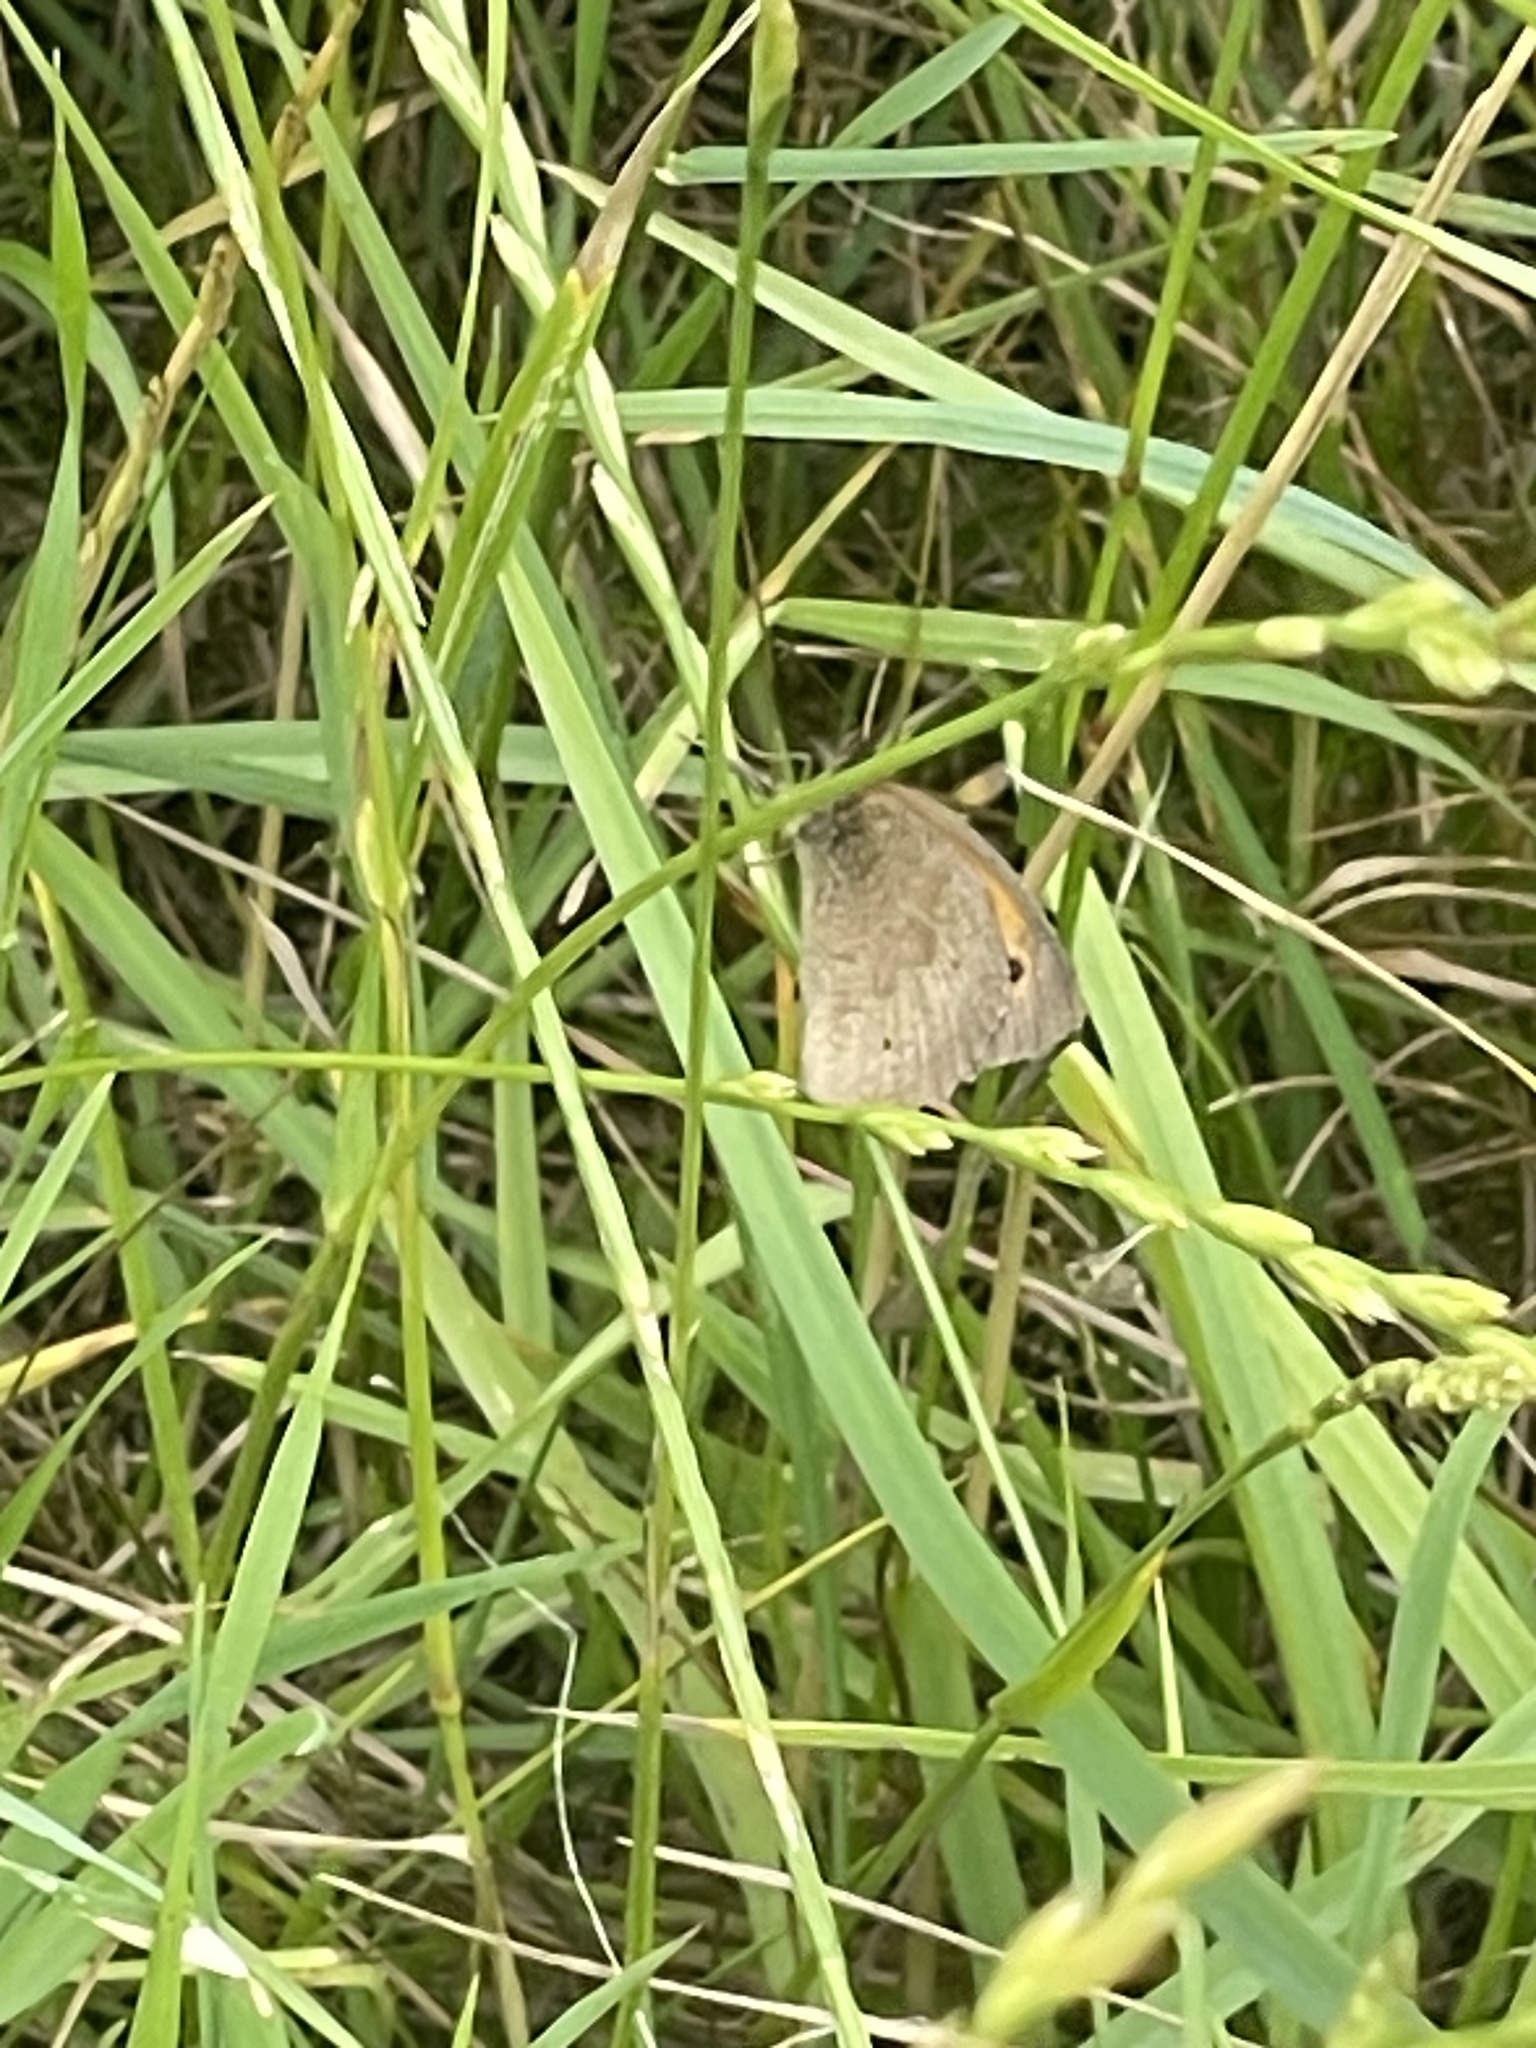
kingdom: Animalia
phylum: Arthropoda
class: Insecta
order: Lepidoptera
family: Nymphalidae
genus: Maniola
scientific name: Maniola jurtina
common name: Meadow brown
